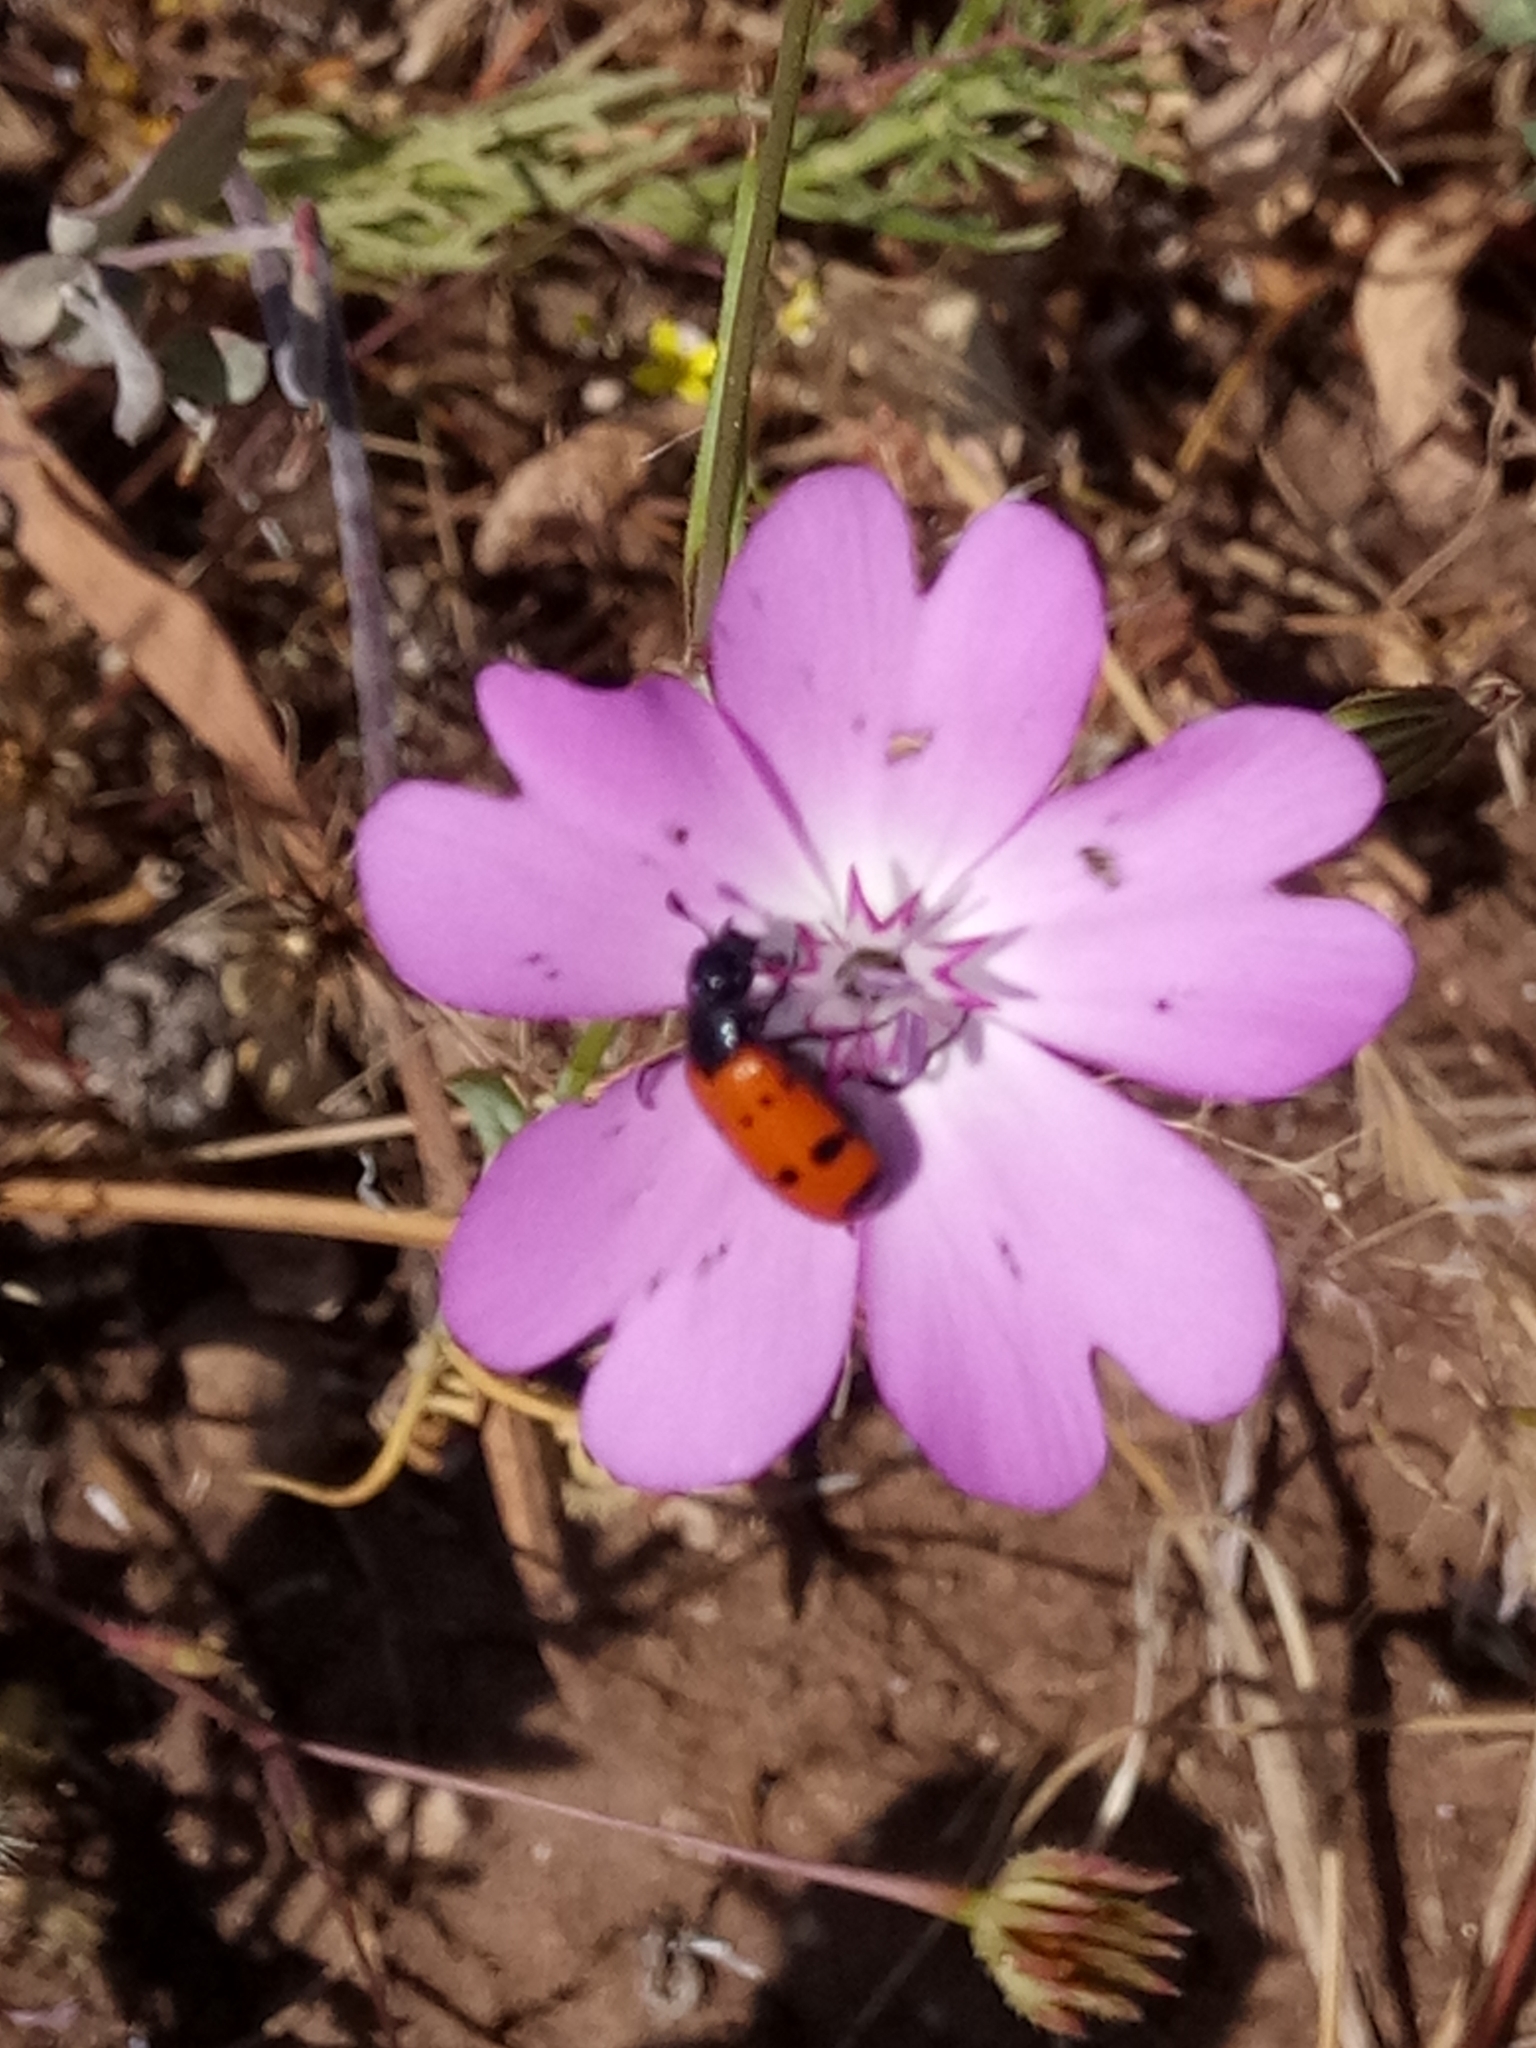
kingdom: Plantae
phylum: Tracheophyta
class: Magnoliopsida
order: Caryophyllales
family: Caryophyllaceae
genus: Eudianthe
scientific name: Eudianthe coeli-rosa
